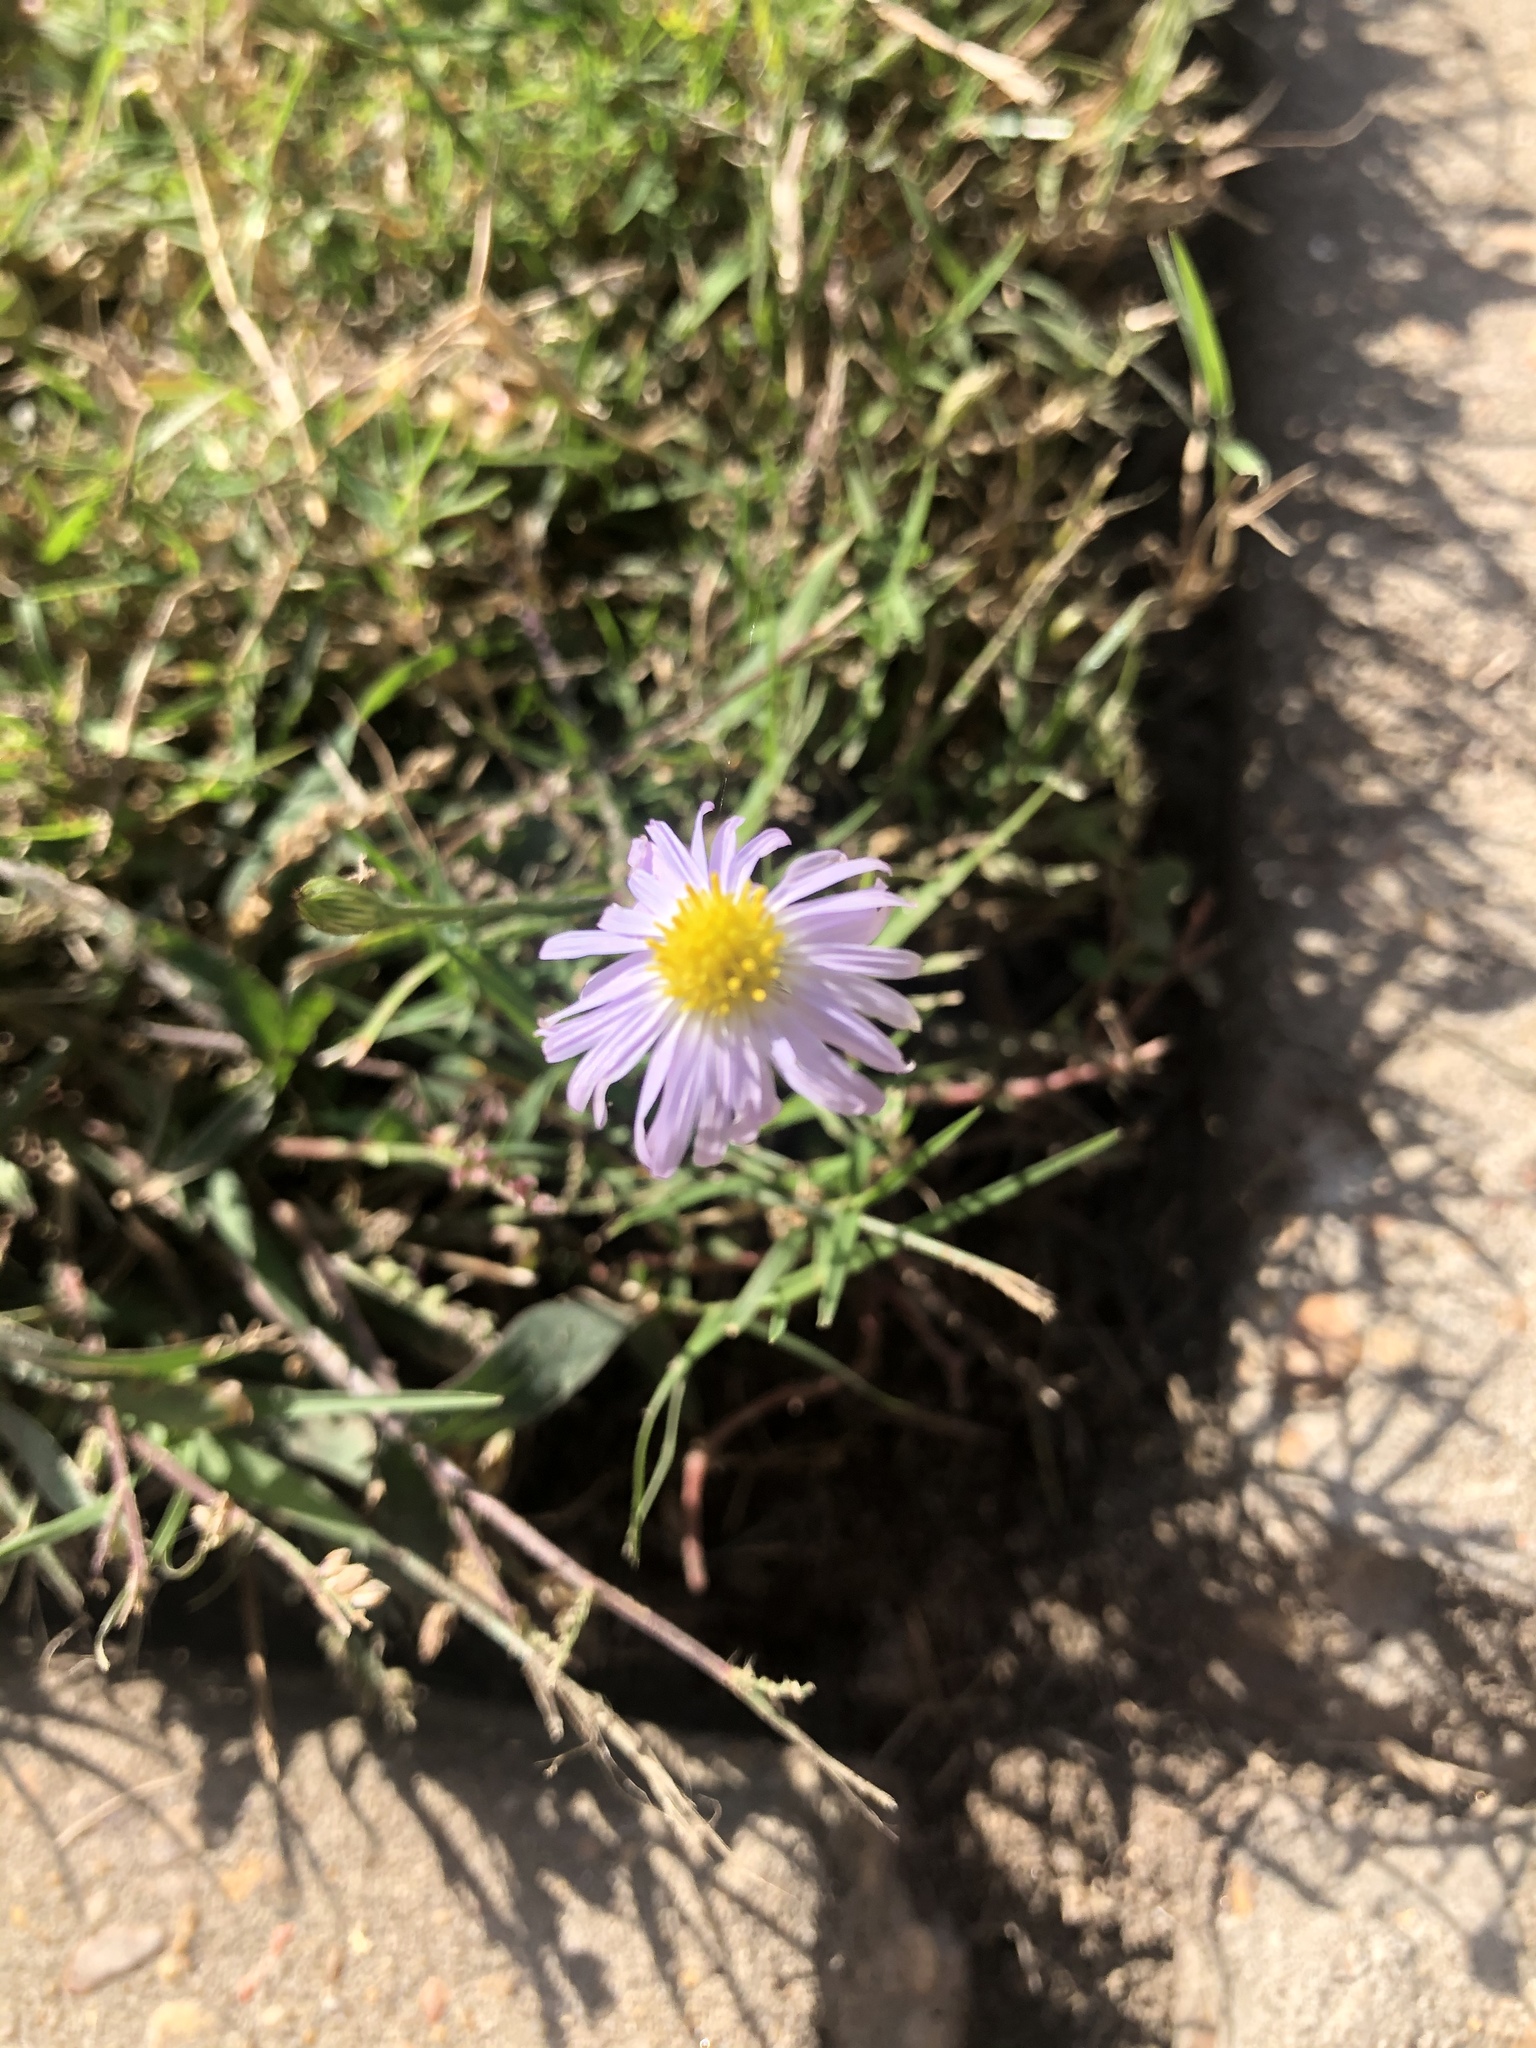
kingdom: Plantae
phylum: Tracheophyta
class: Magnoliopsida
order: Asterales
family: Asteraceae
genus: Symphyotrichum
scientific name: Symphyotrichum divaricatum
